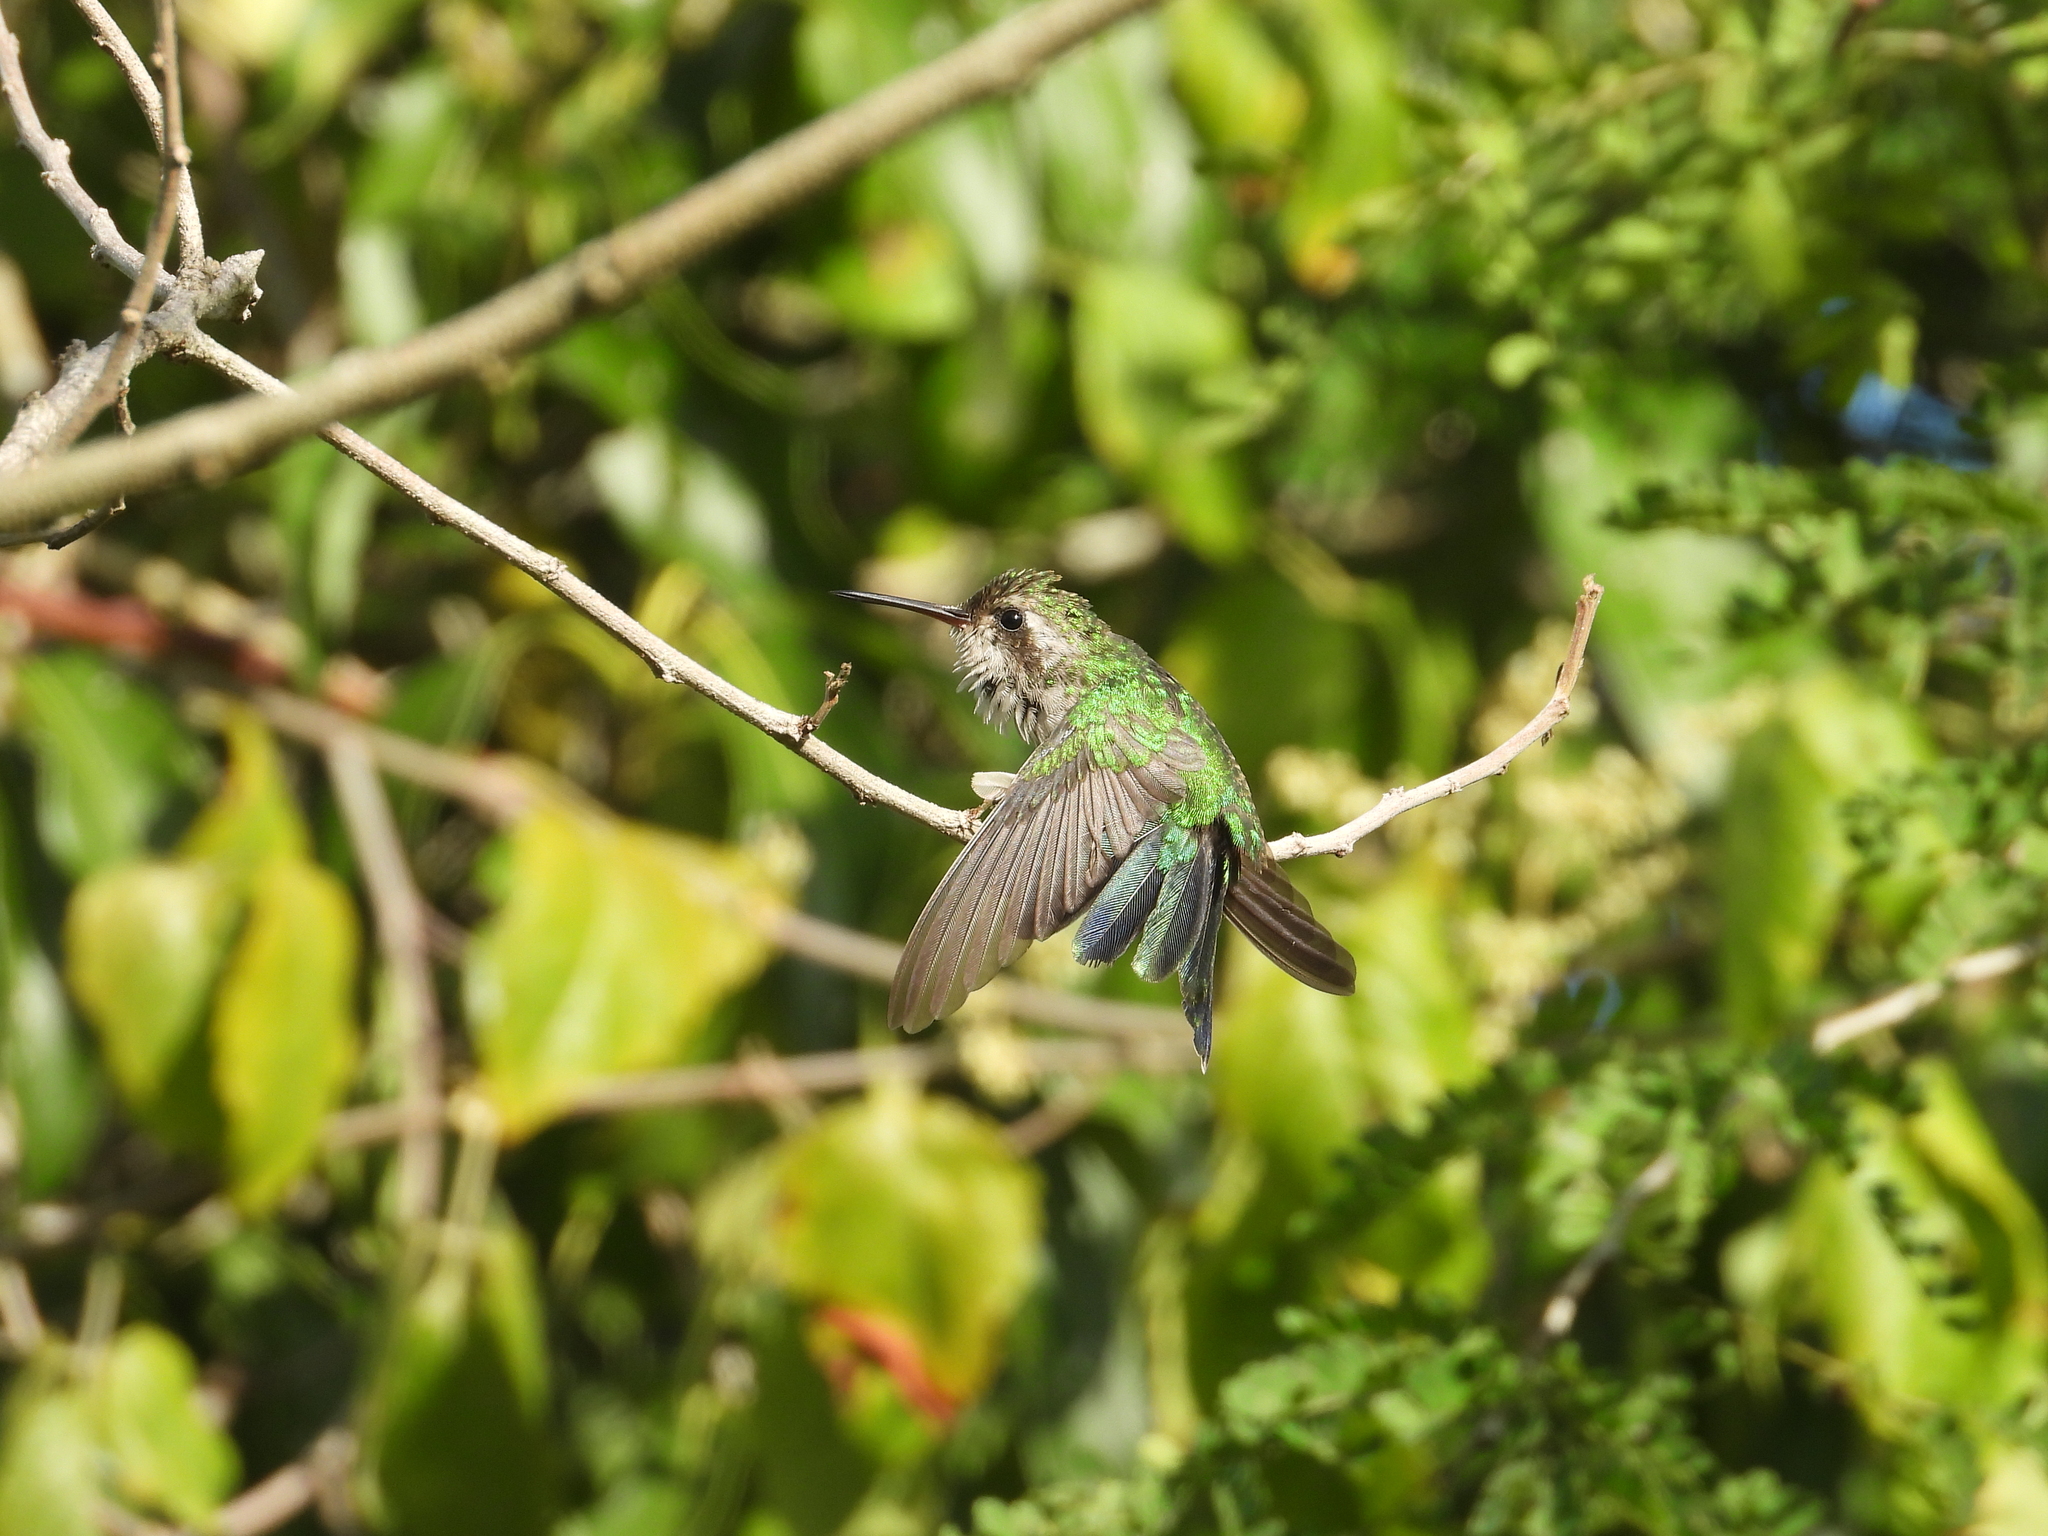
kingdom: Animalia
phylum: Chordata
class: Aves
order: Apodiformes
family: Trochilidae
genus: Cynanthus
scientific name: Cynanthus canivetii
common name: Canivet's emerald
